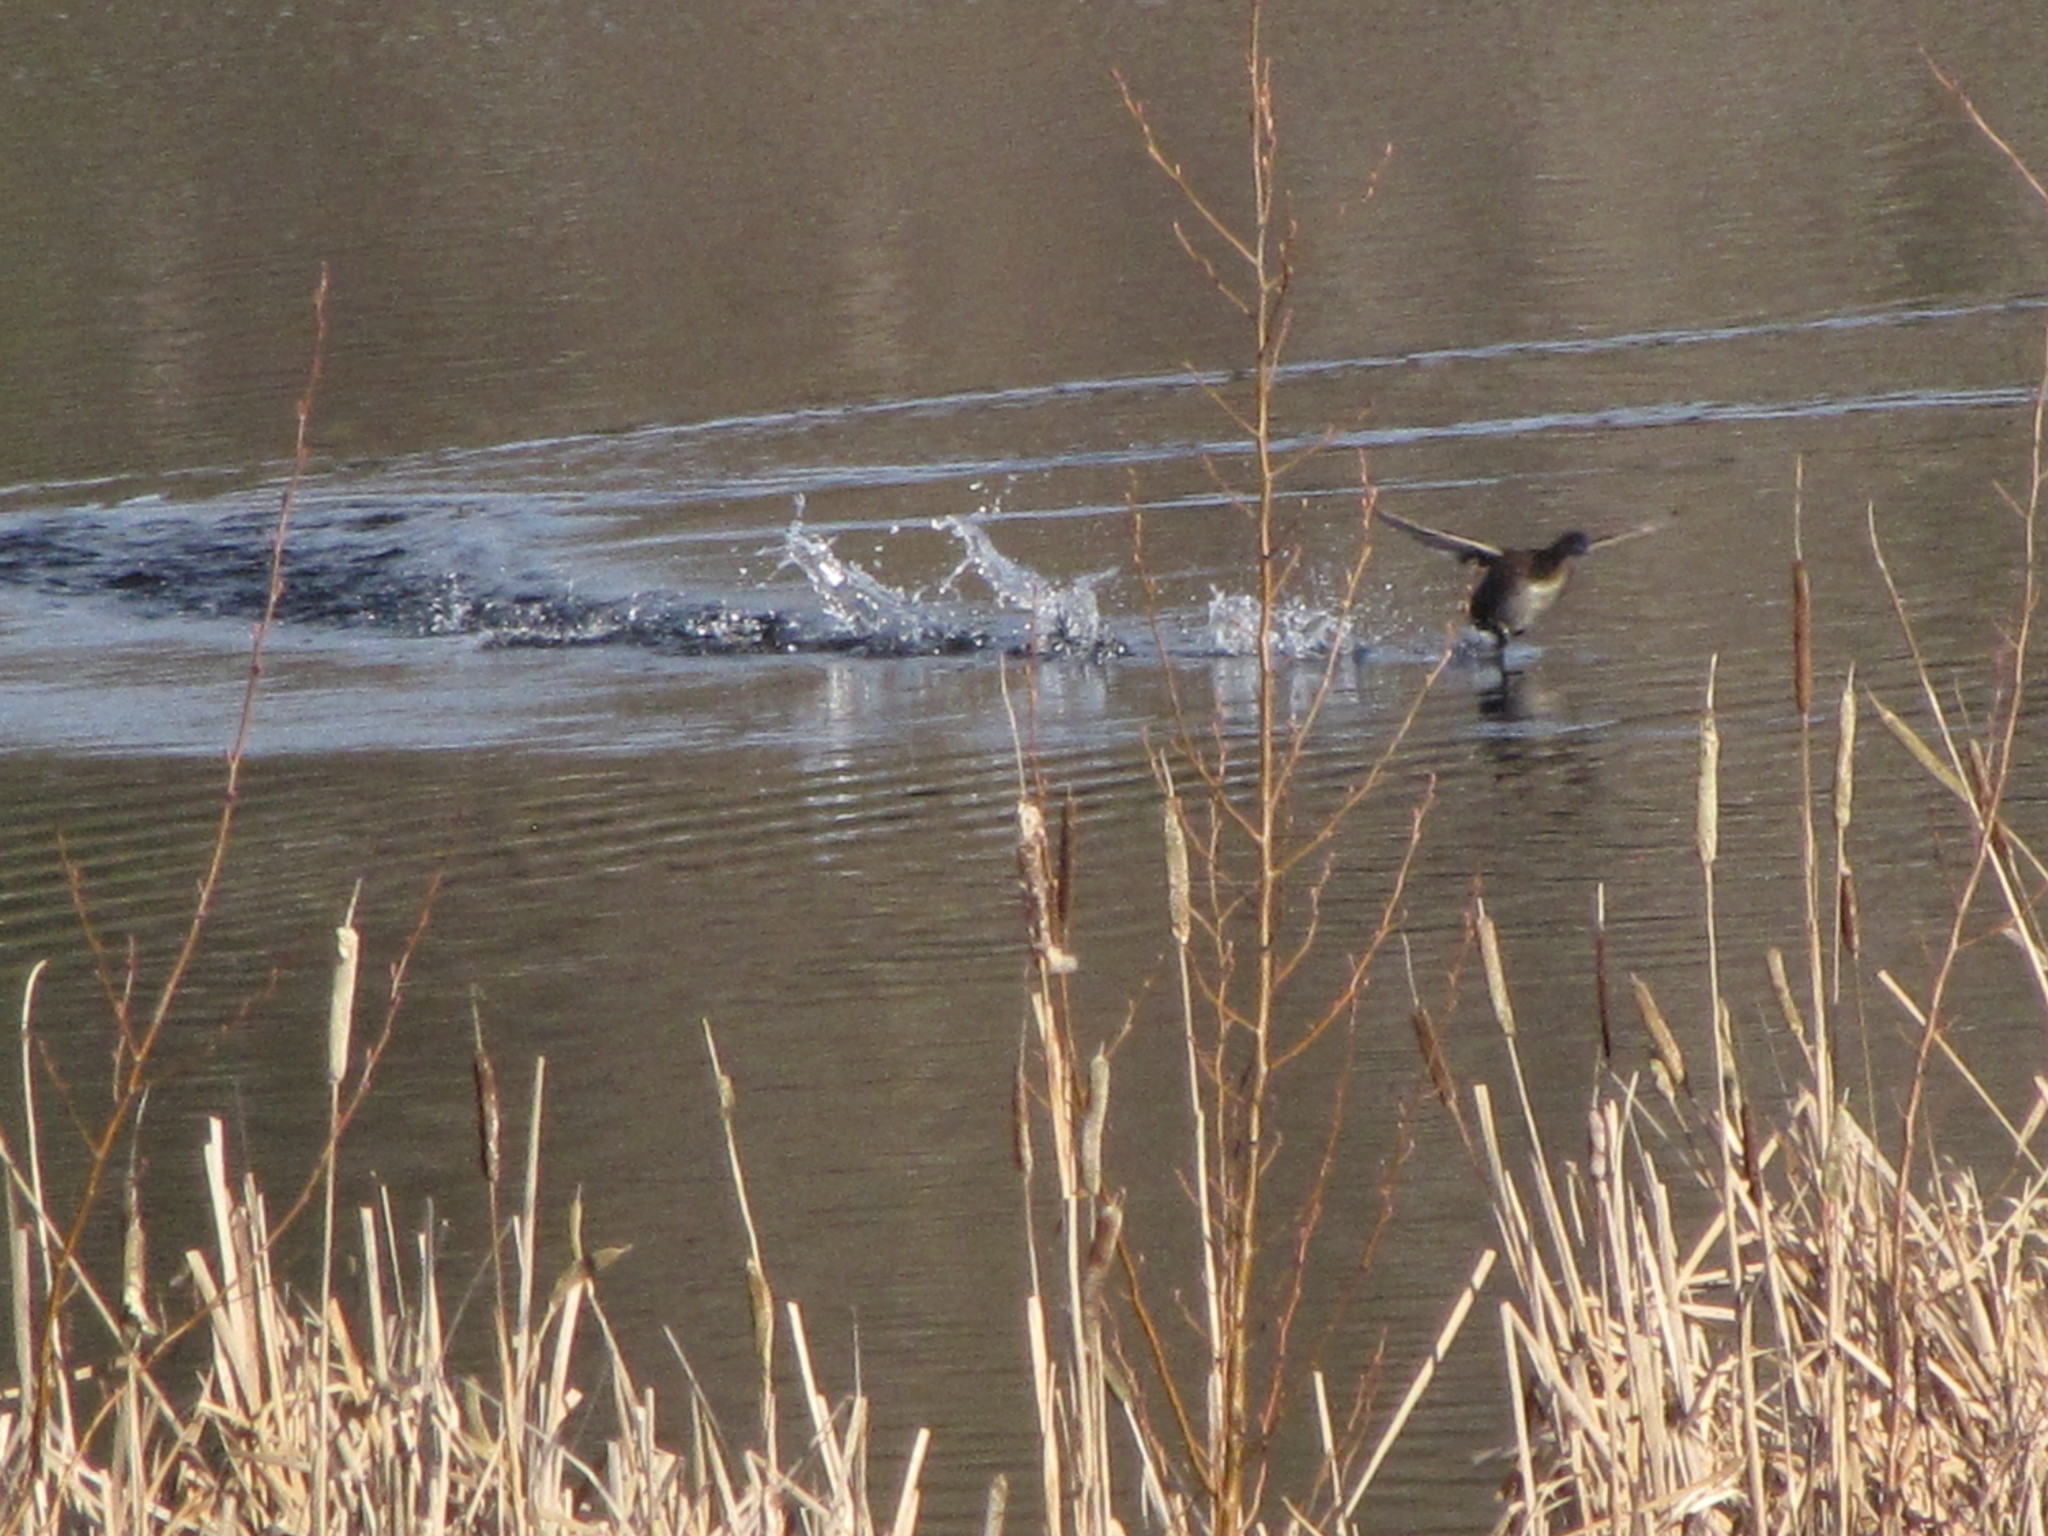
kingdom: Animalia
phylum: Chordata
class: Aves
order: Anseriformes
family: Anatidae
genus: Anas
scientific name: Anas platyrhynchos
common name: Mallard
